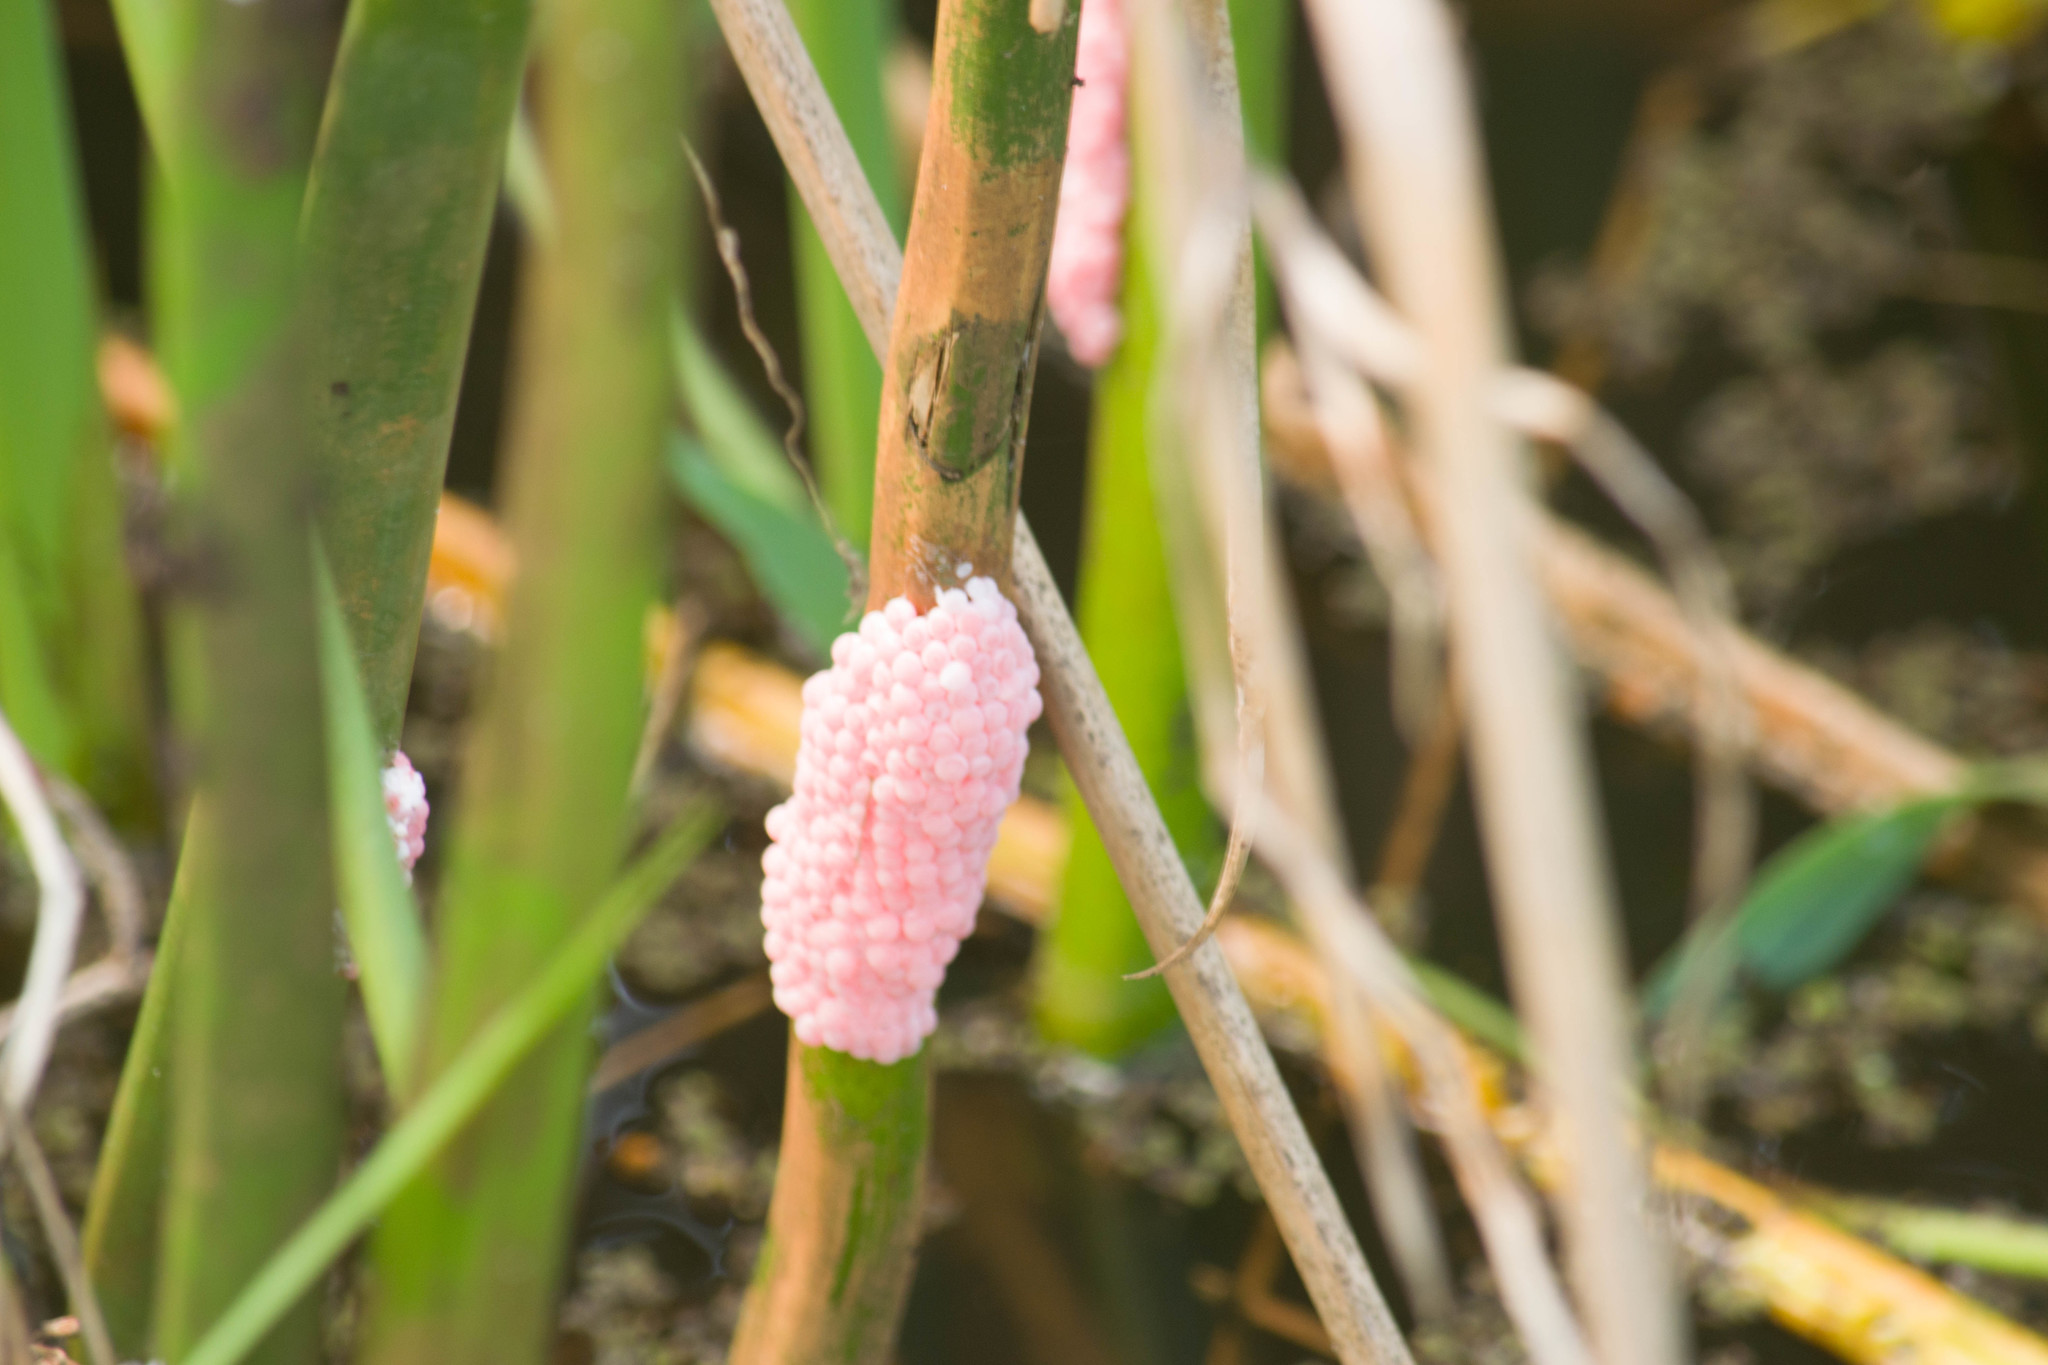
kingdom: Animalia
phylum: Mollusca
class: Gastropoda
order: Architaenioglossa
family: Ampullariidae
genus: Pomacea
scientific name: Pomacea canaliculata
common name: Channeled applesnail
